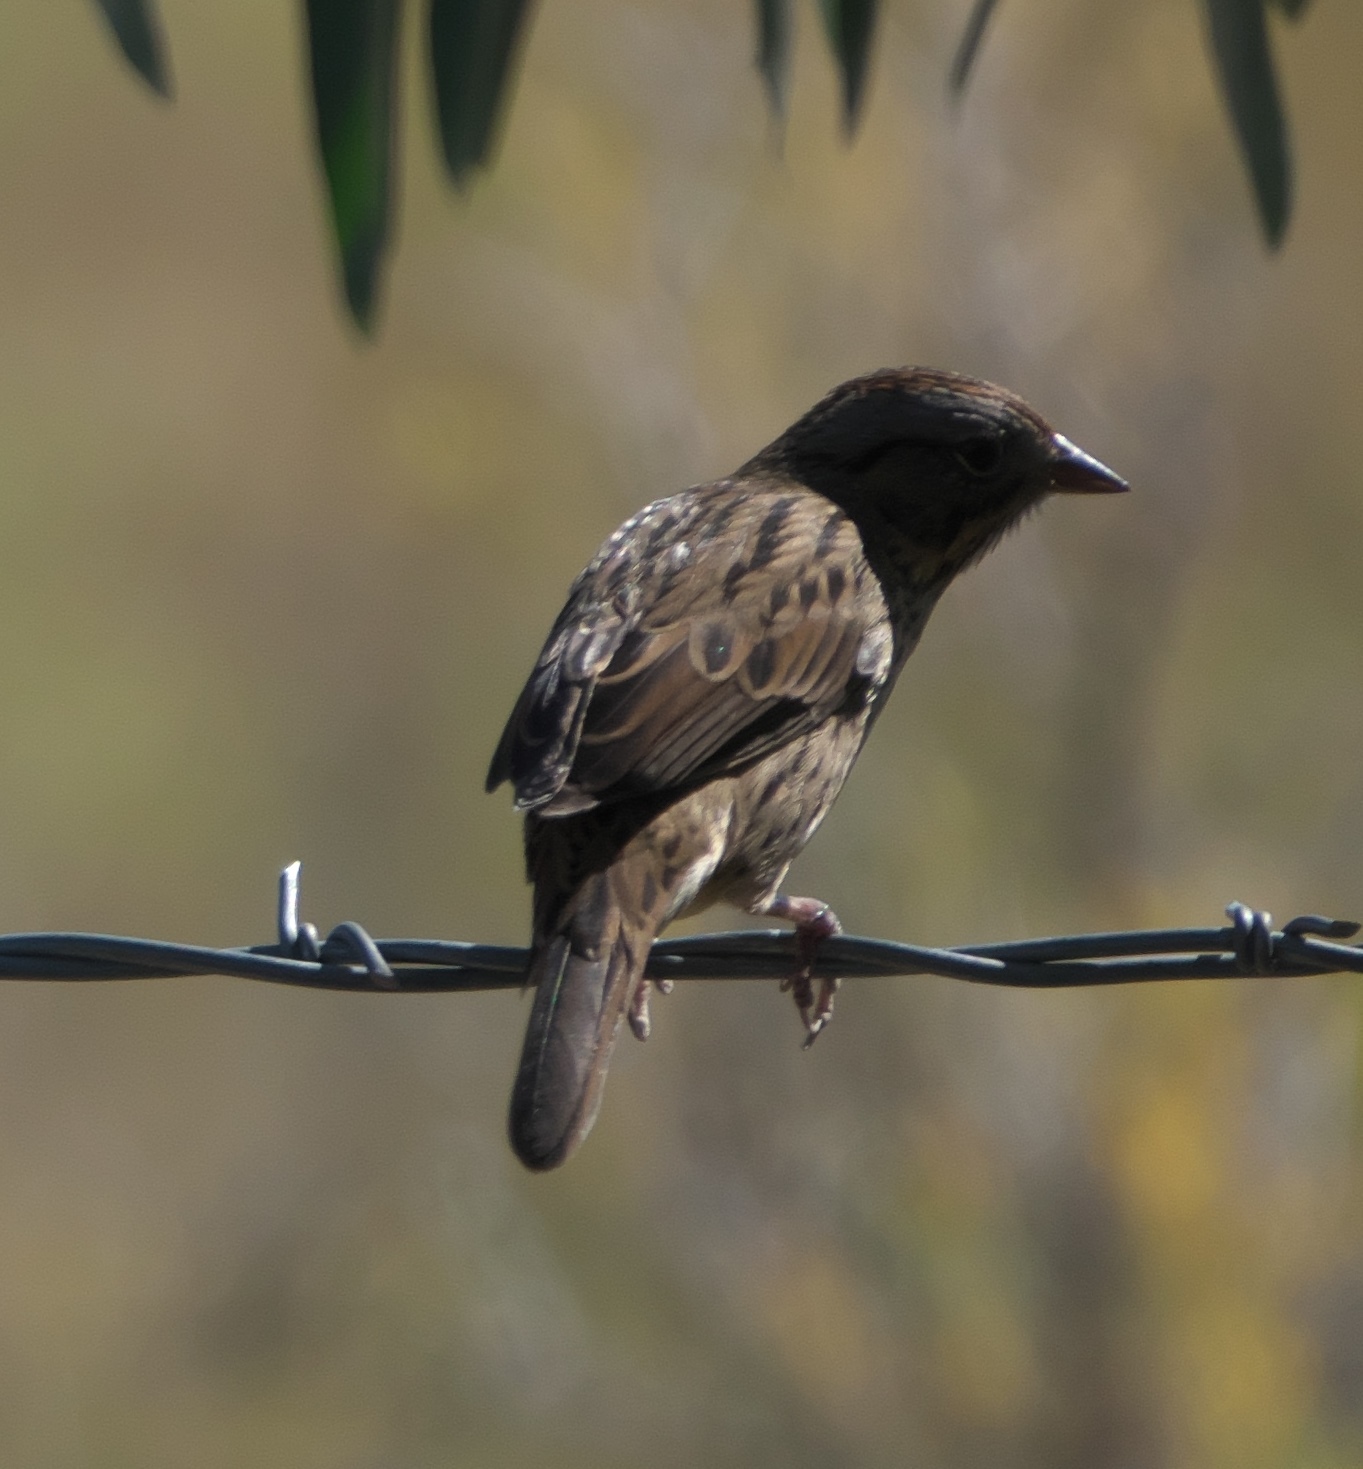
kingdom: Animalia
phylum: Chordata
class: Aves
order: Passeriformes
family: Passerellidae
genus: Melospiza
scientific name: Melospiza lincolnii
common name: Lincoln's sparrow
